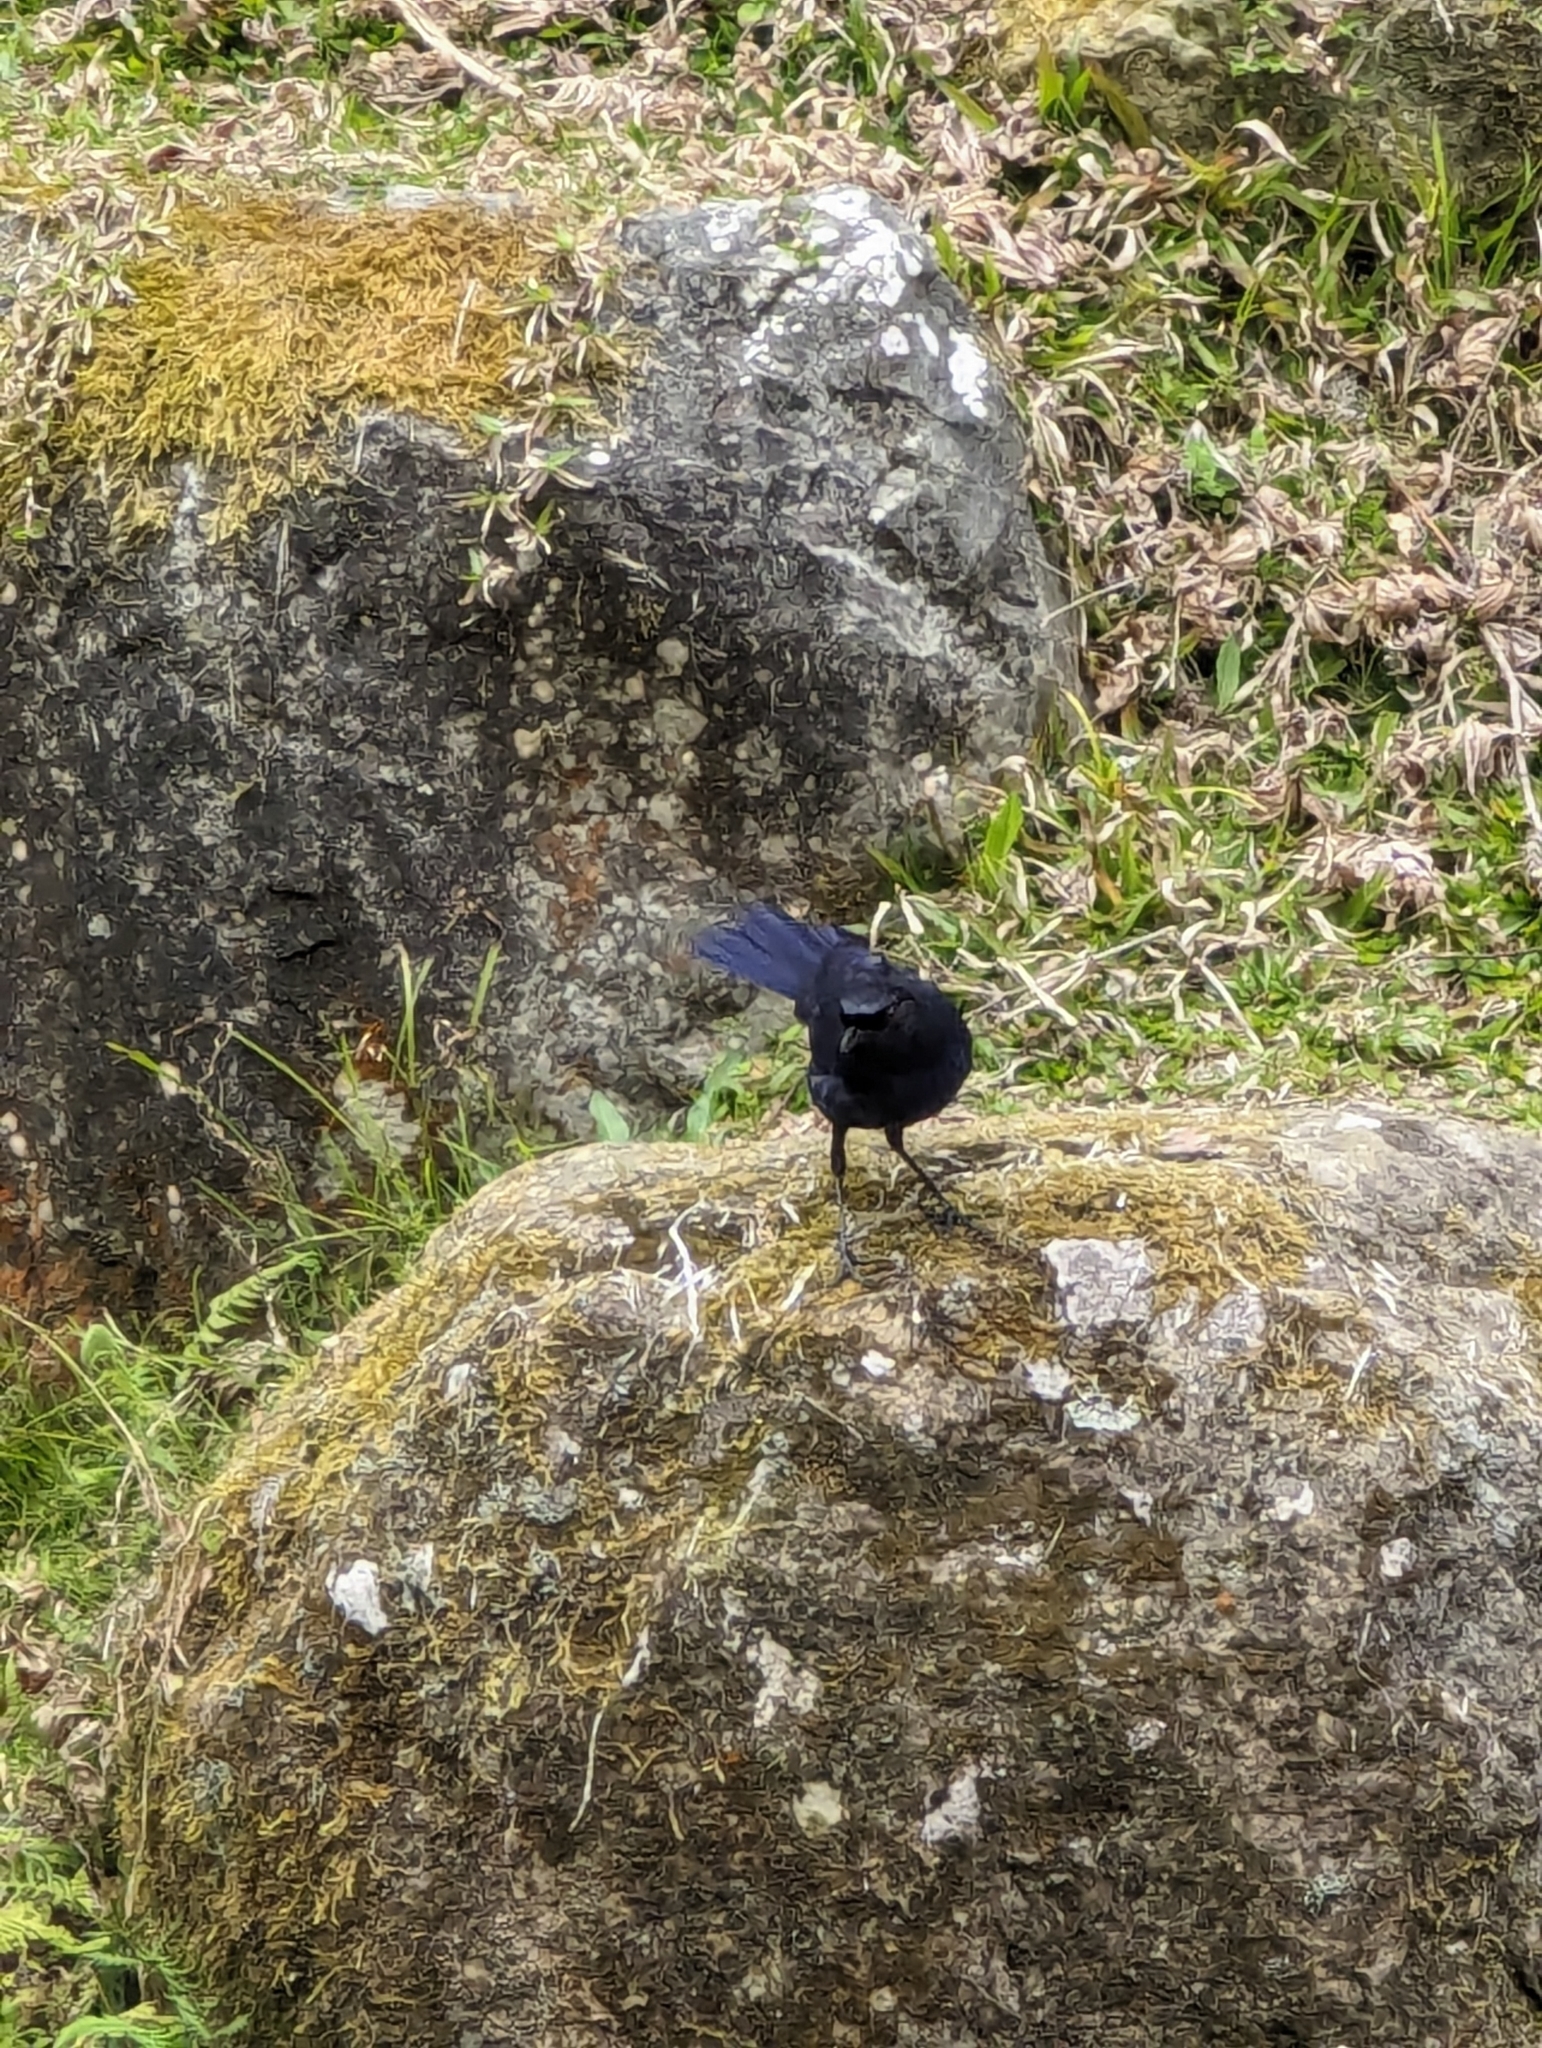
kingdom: Animalia
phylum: Chordata
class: Aves
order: Passeriformes
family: Muscicapidae
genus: Myophonus
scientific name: Myophonus insularis
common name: Taiwan whistling-thrush
